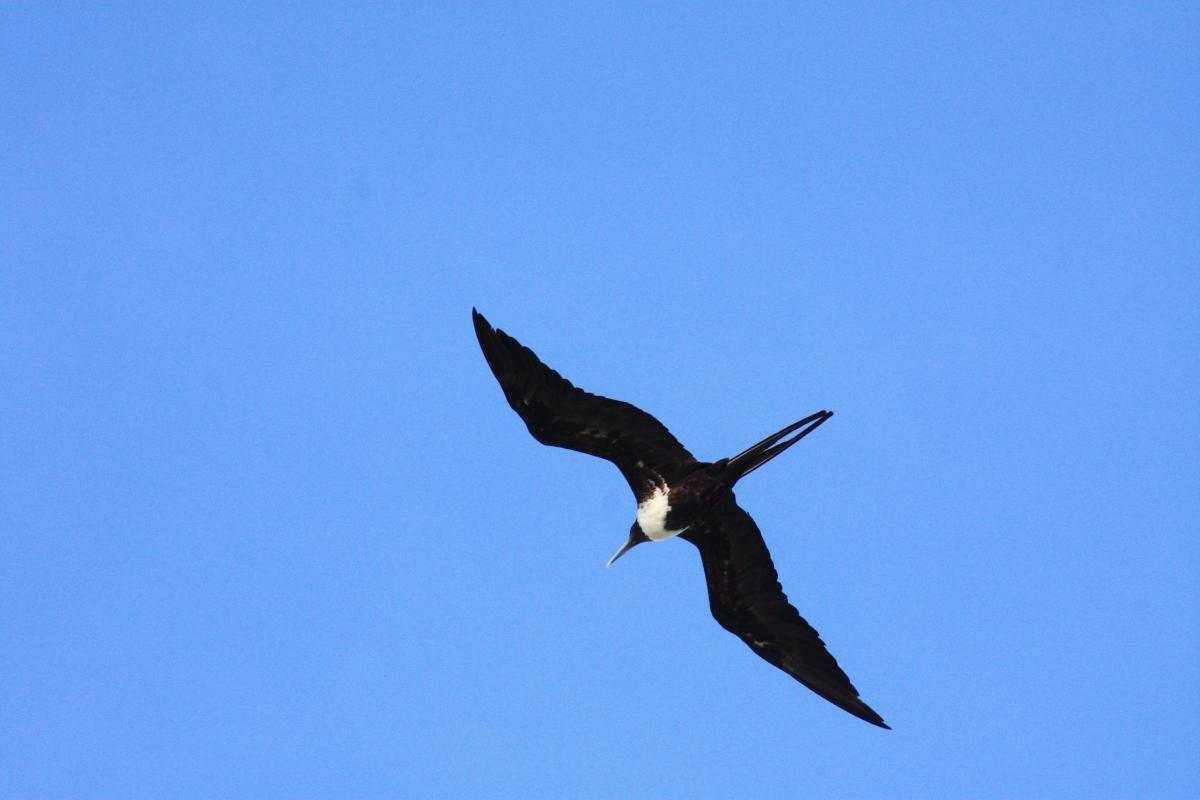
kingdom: Animalia
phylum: Chordata
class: Aves
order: Suliformes
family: Fregatidae
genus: Fregata
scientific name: Fregata magnificens
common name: Magnificent frigatebird
